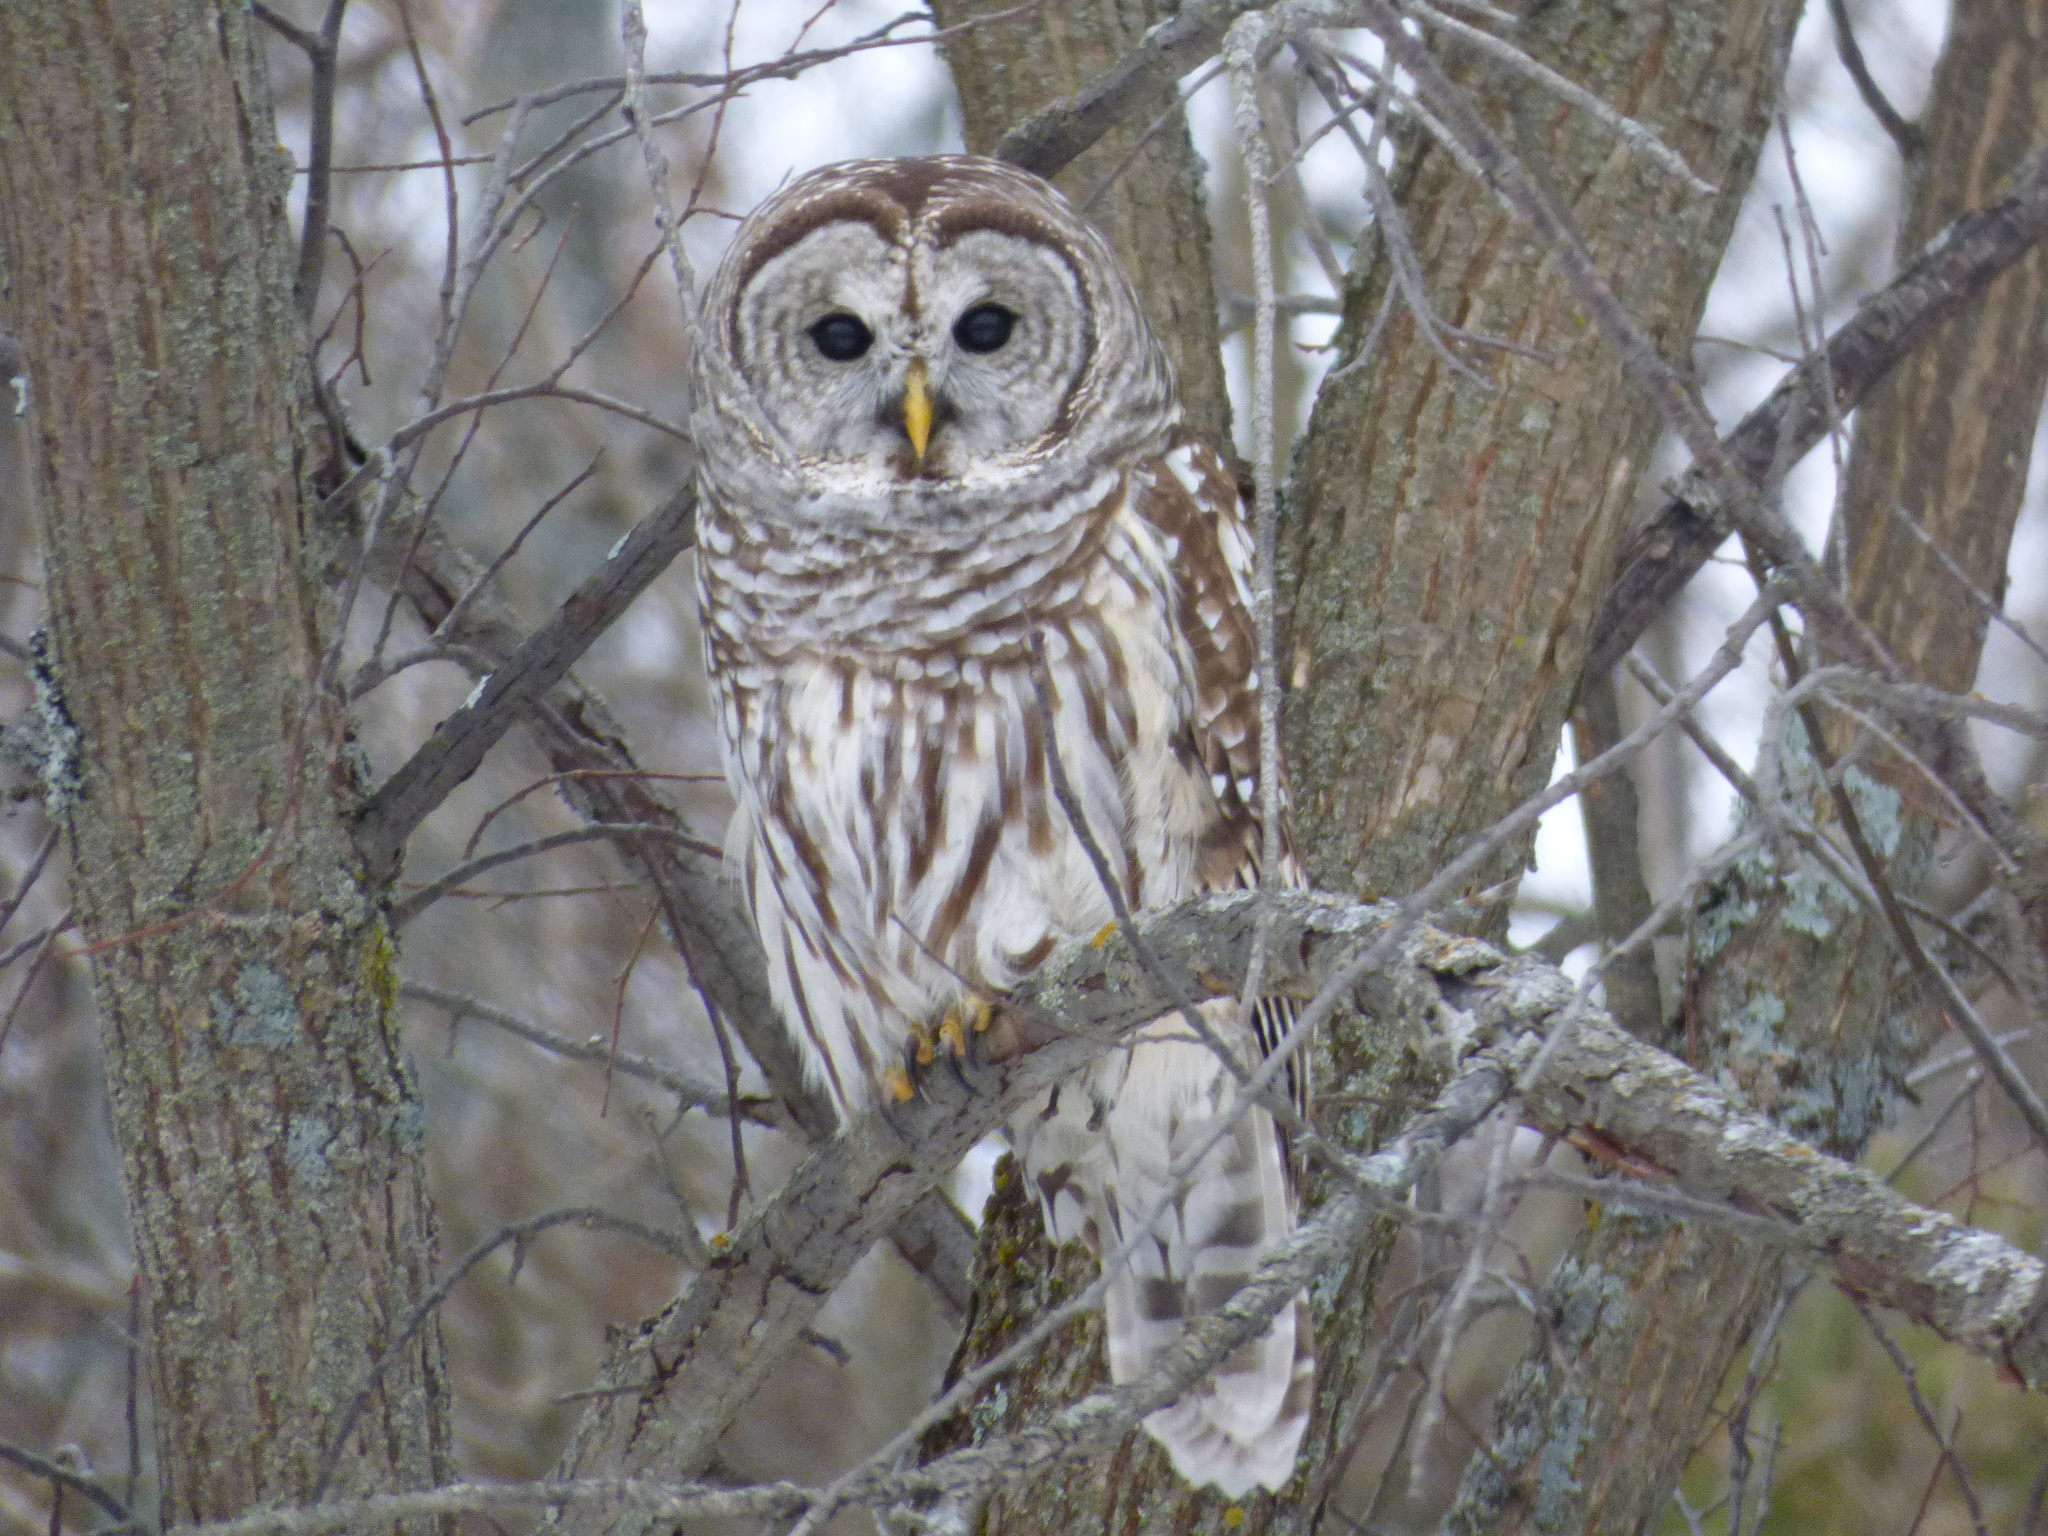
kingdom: Animalia
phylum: Chordata
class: Aves
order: Strigiformes
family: Strigidae
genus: Strix
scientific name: Strix varia
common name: Barred owl
